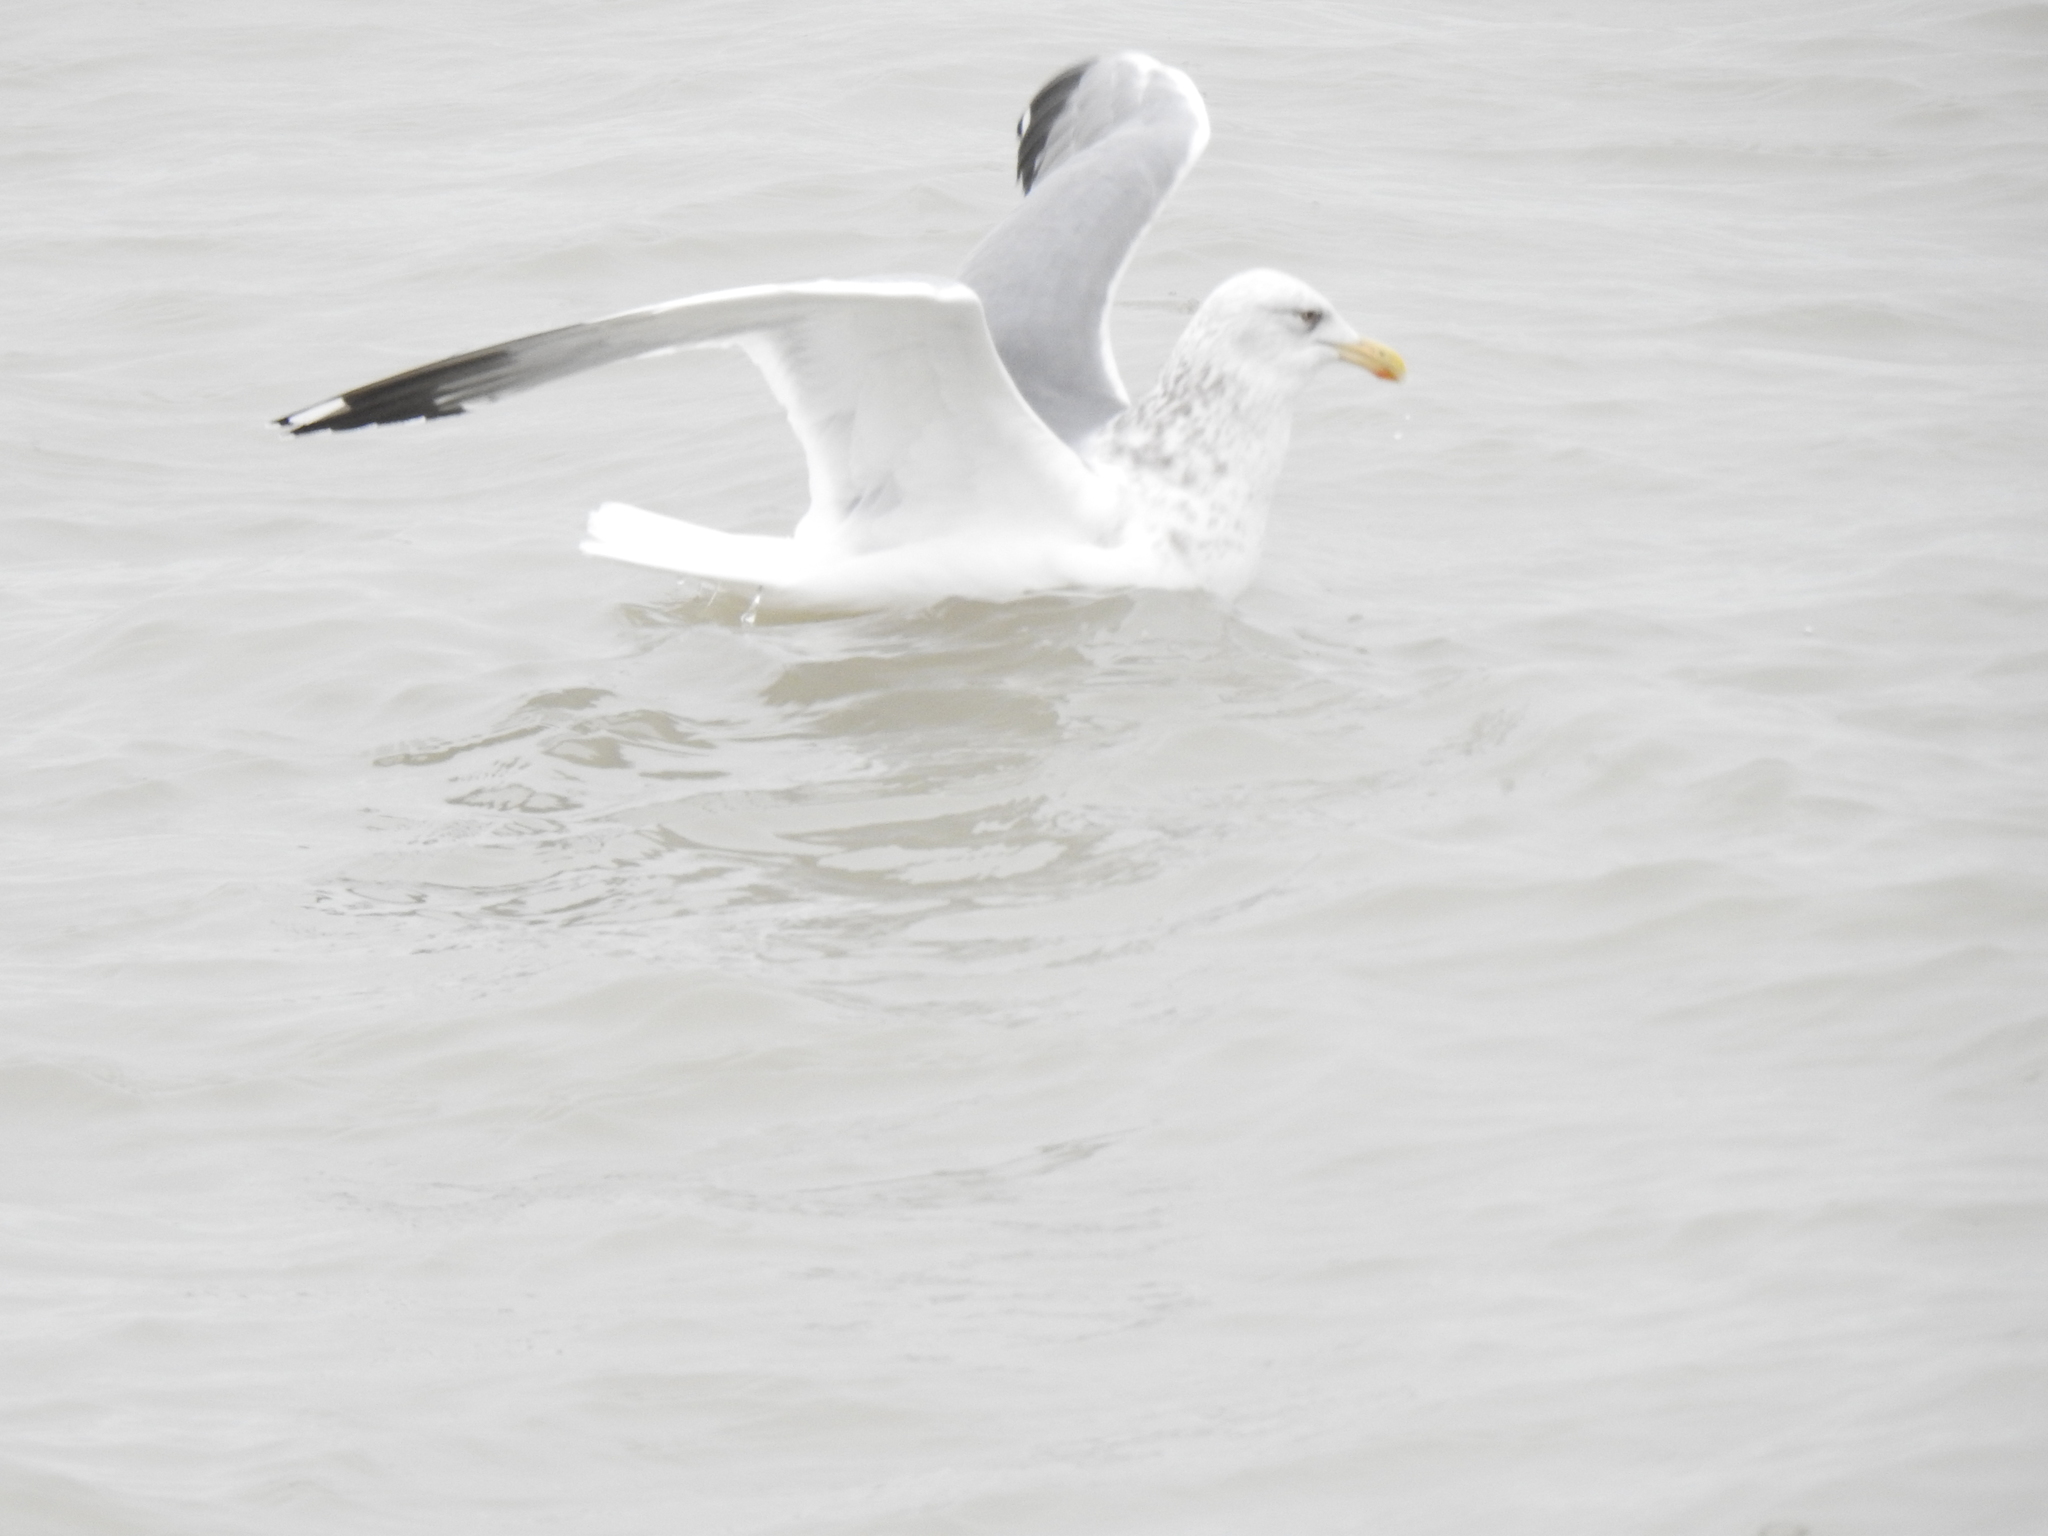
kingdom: Animalia
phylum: Chordata
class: Aves
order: Charadriiformes
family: Laridae
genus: Larus
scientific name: Larus argentatus
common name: Herring gull
